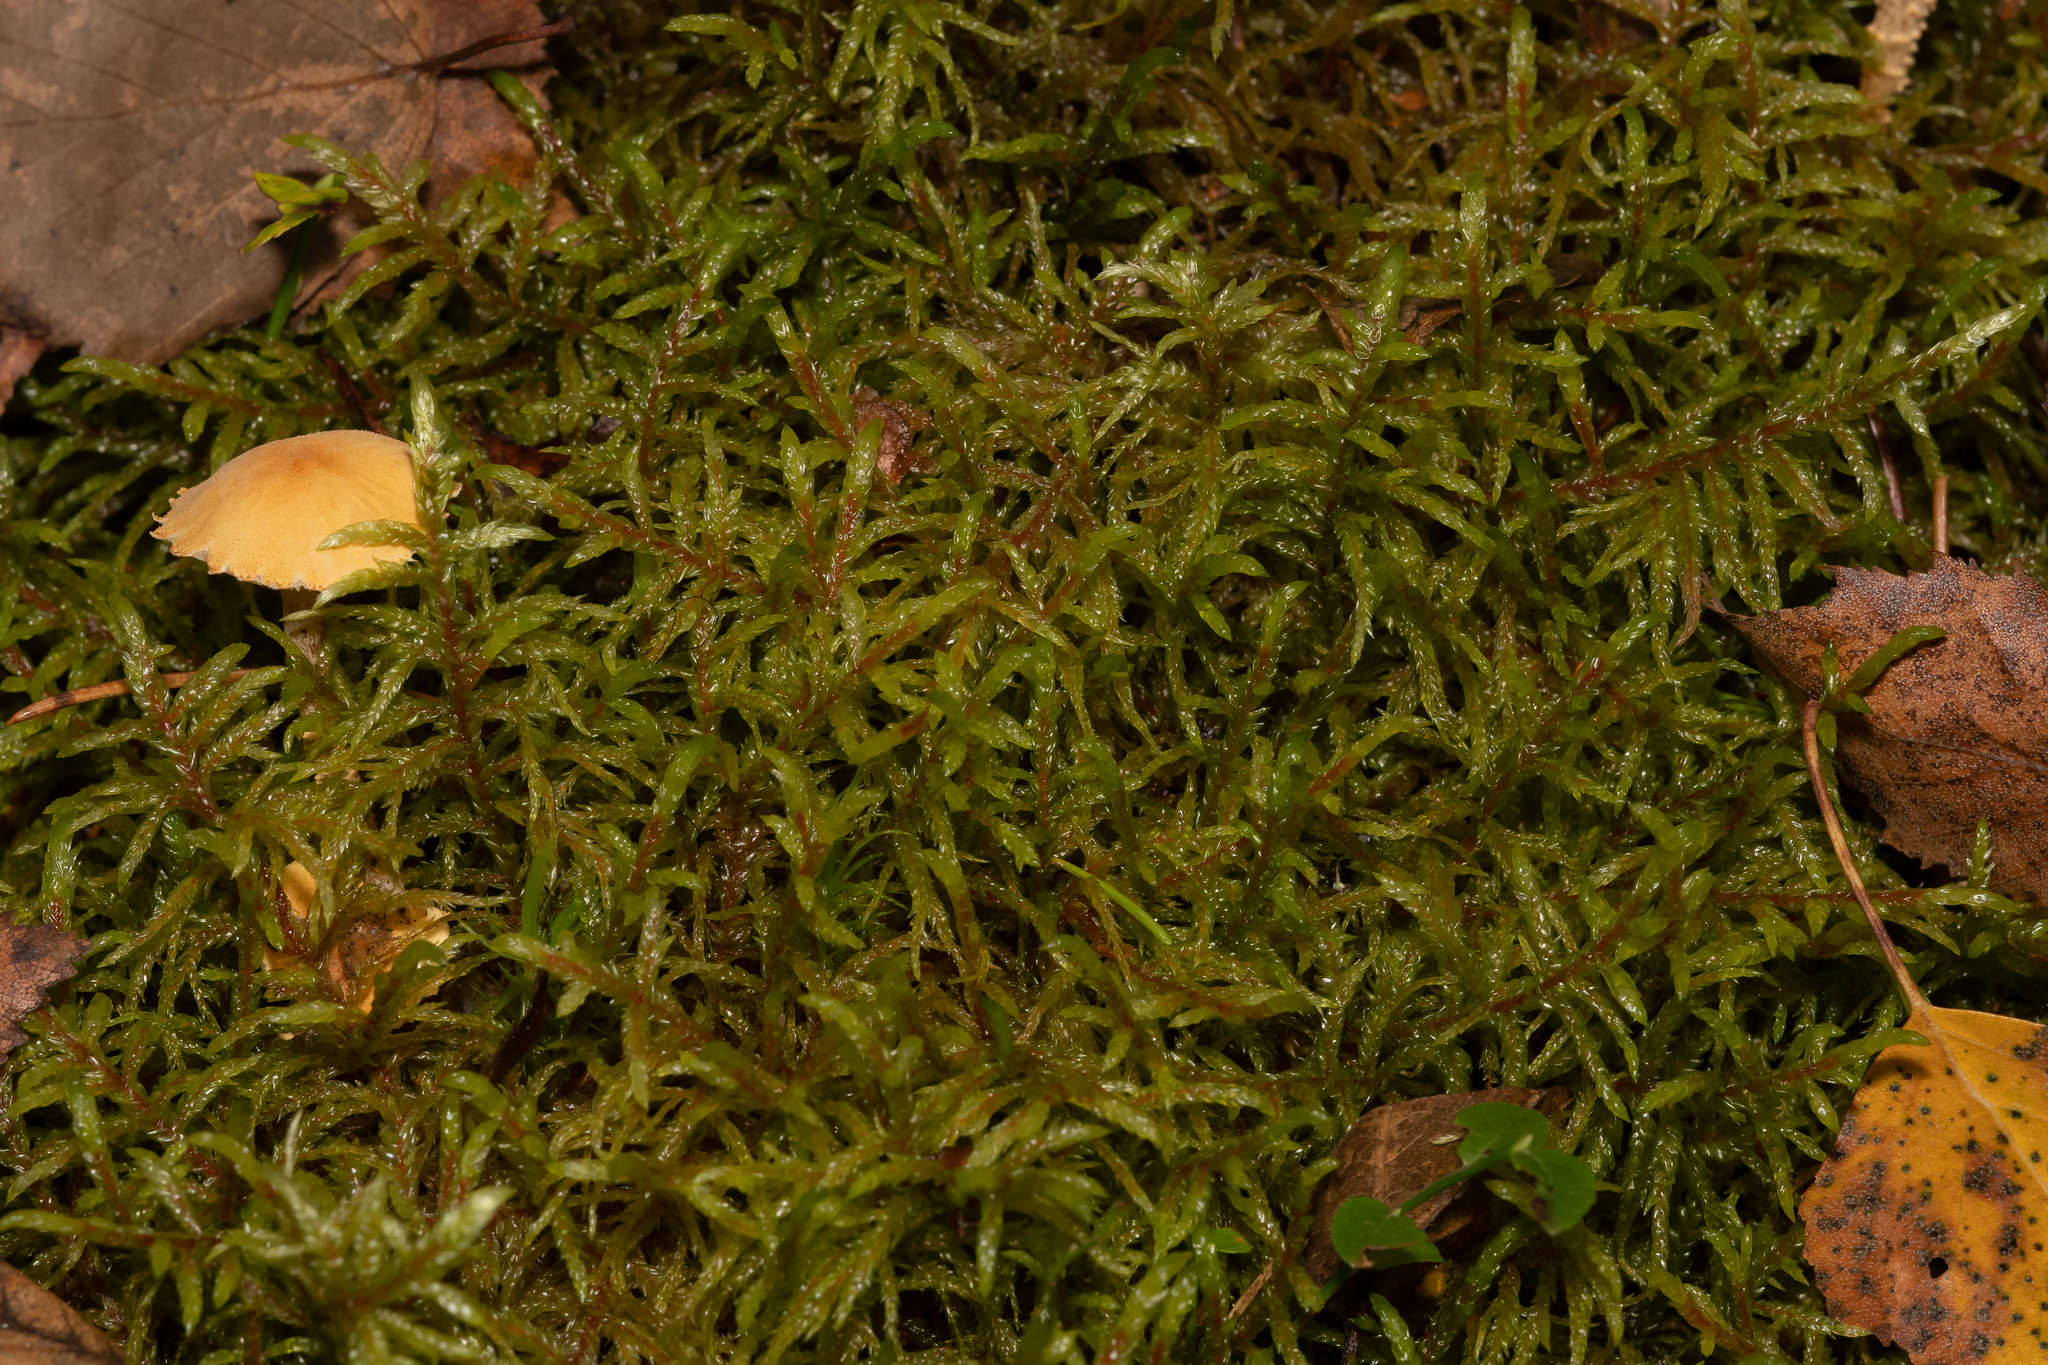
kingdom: Plantae
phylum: Bryophyta
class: Bryopsida
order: Hypnales
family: Hylocomiaceae
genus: Pleurozium
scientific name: Pleurozium schreberi
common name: Red-stemmed feather moss
